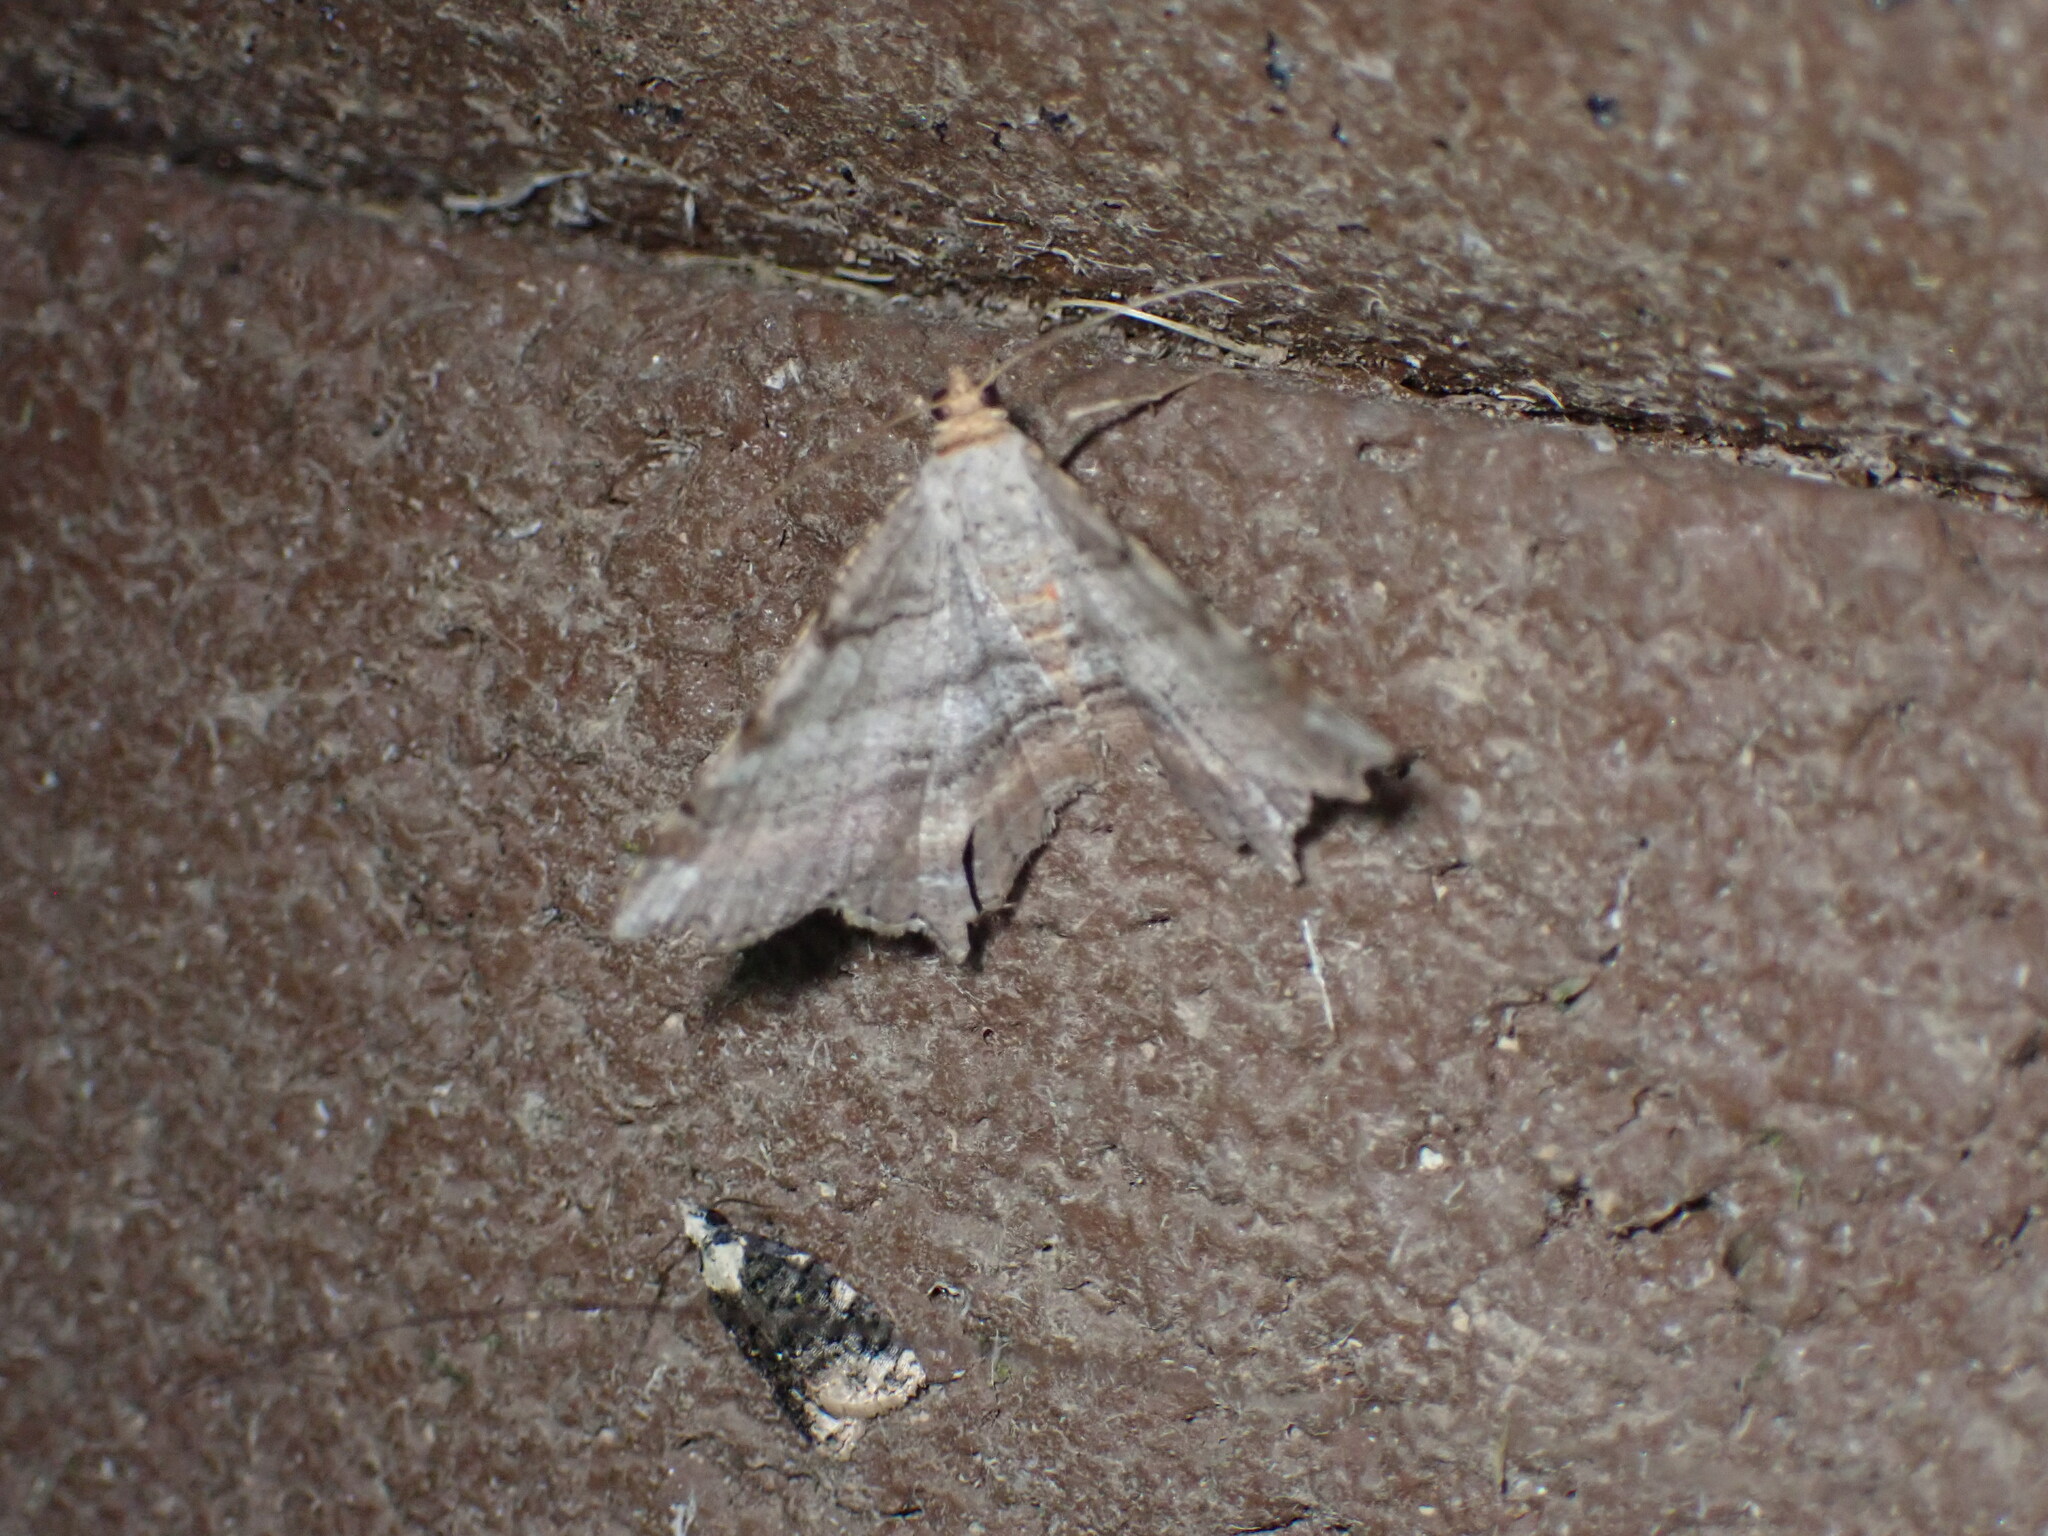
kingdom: Animalia
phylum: Arthropoda
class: Insecta
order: Lepidoptera
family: Geometridae
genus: Macaria
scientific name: Macaria multilineata
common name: Many-lined angle
